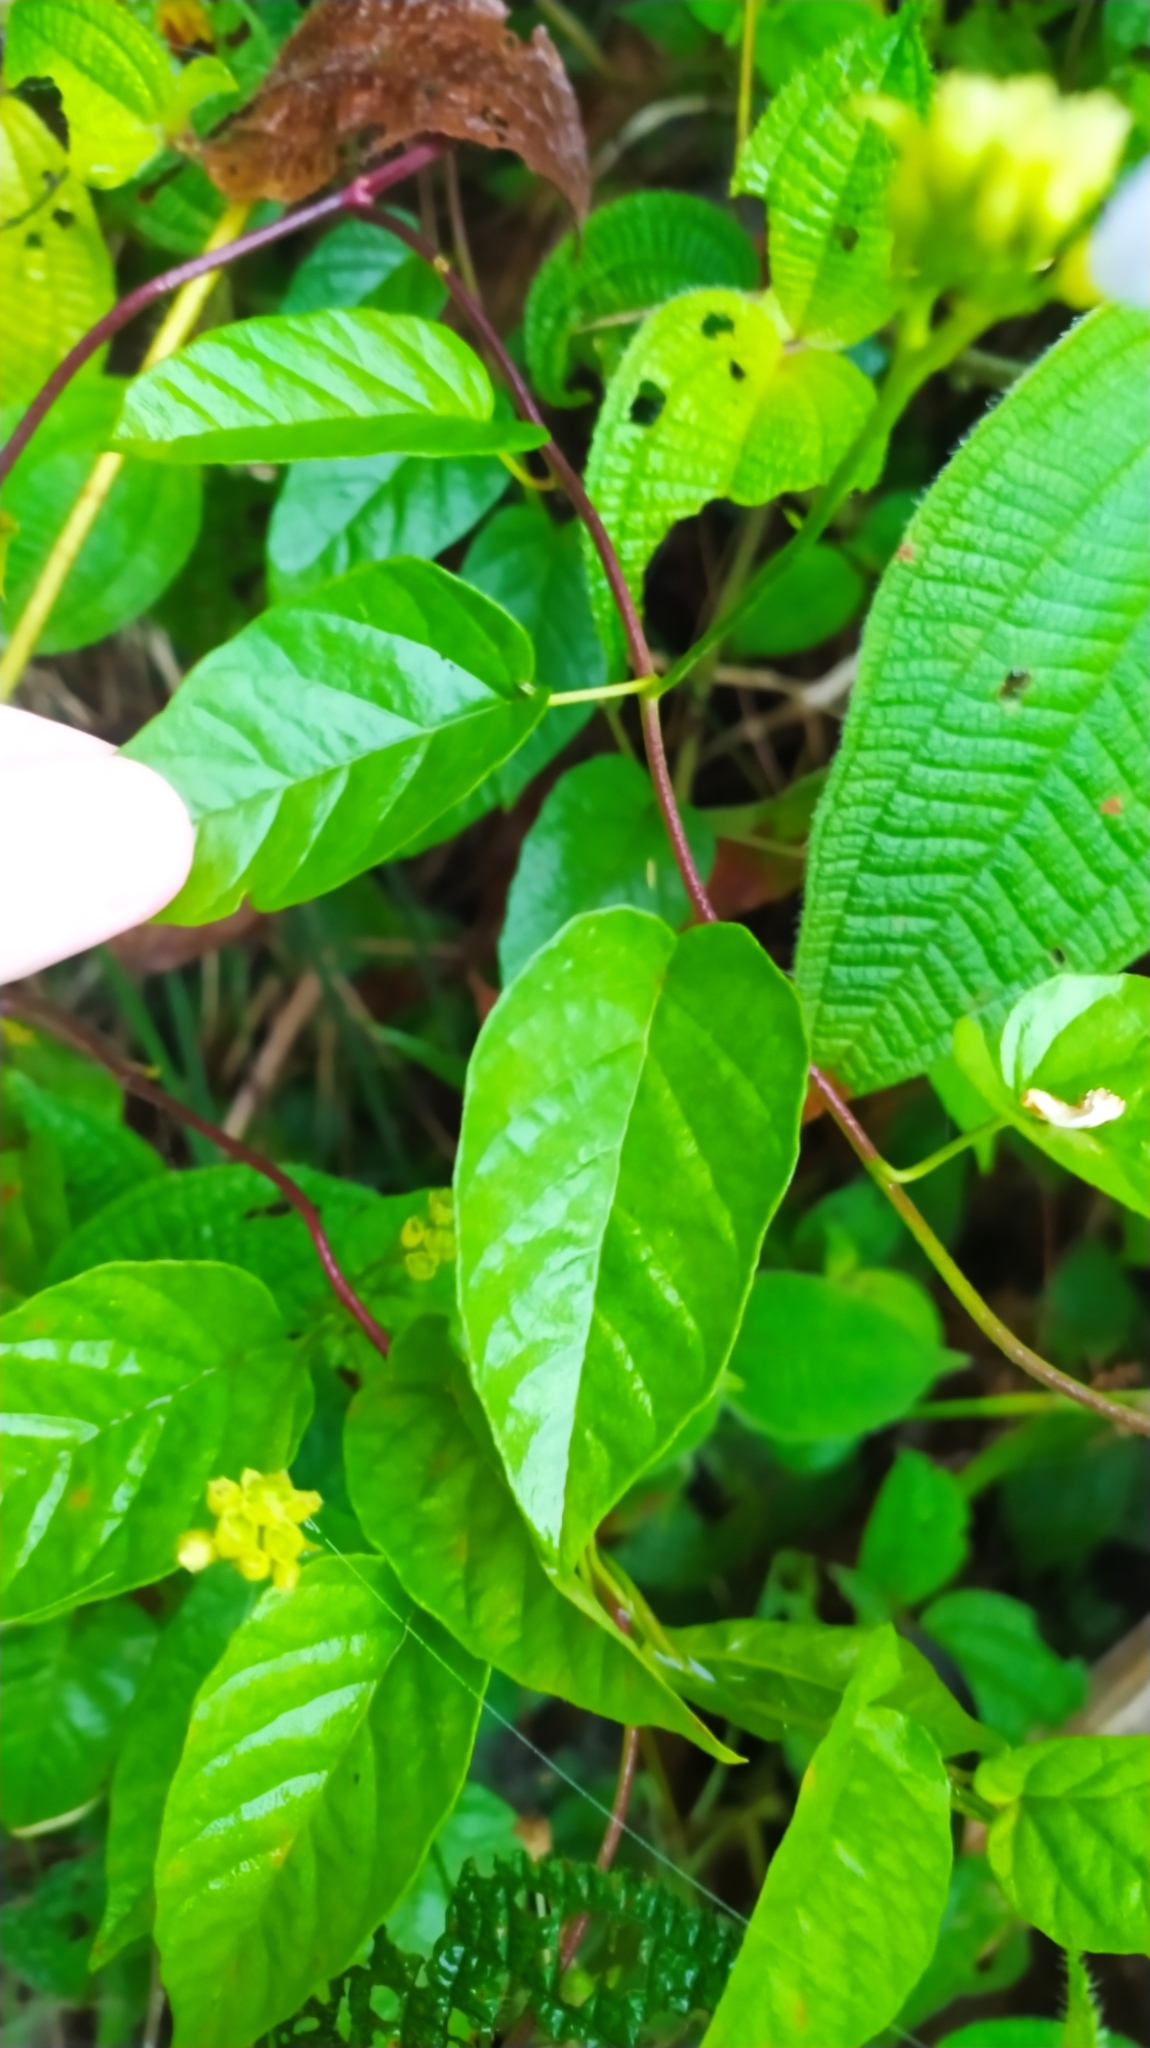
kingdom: Plantae
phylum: Tracheophyta
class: Magnoliopsida
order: Solanales
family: Convolvulaceae
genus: Jacquemontia
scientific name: Jacquemontia gabrielii
